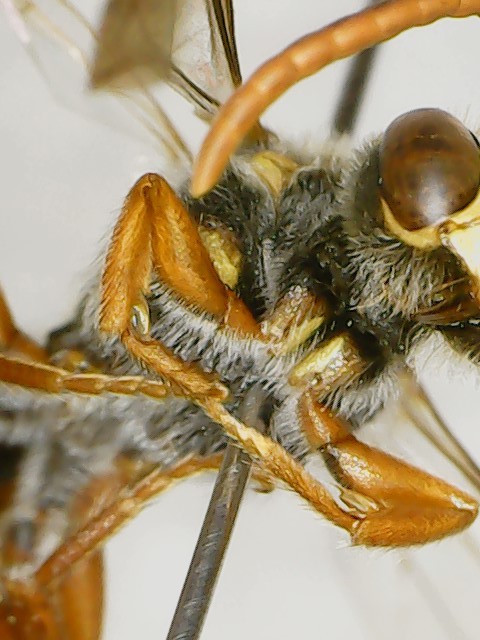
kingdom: Animalia
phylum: Arthropoda
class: Insecta
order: Hymenoptera
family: Apidae
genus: Nomada
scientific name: Nomada xanthura
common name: Yellow-striped cuckoo nomad bee
